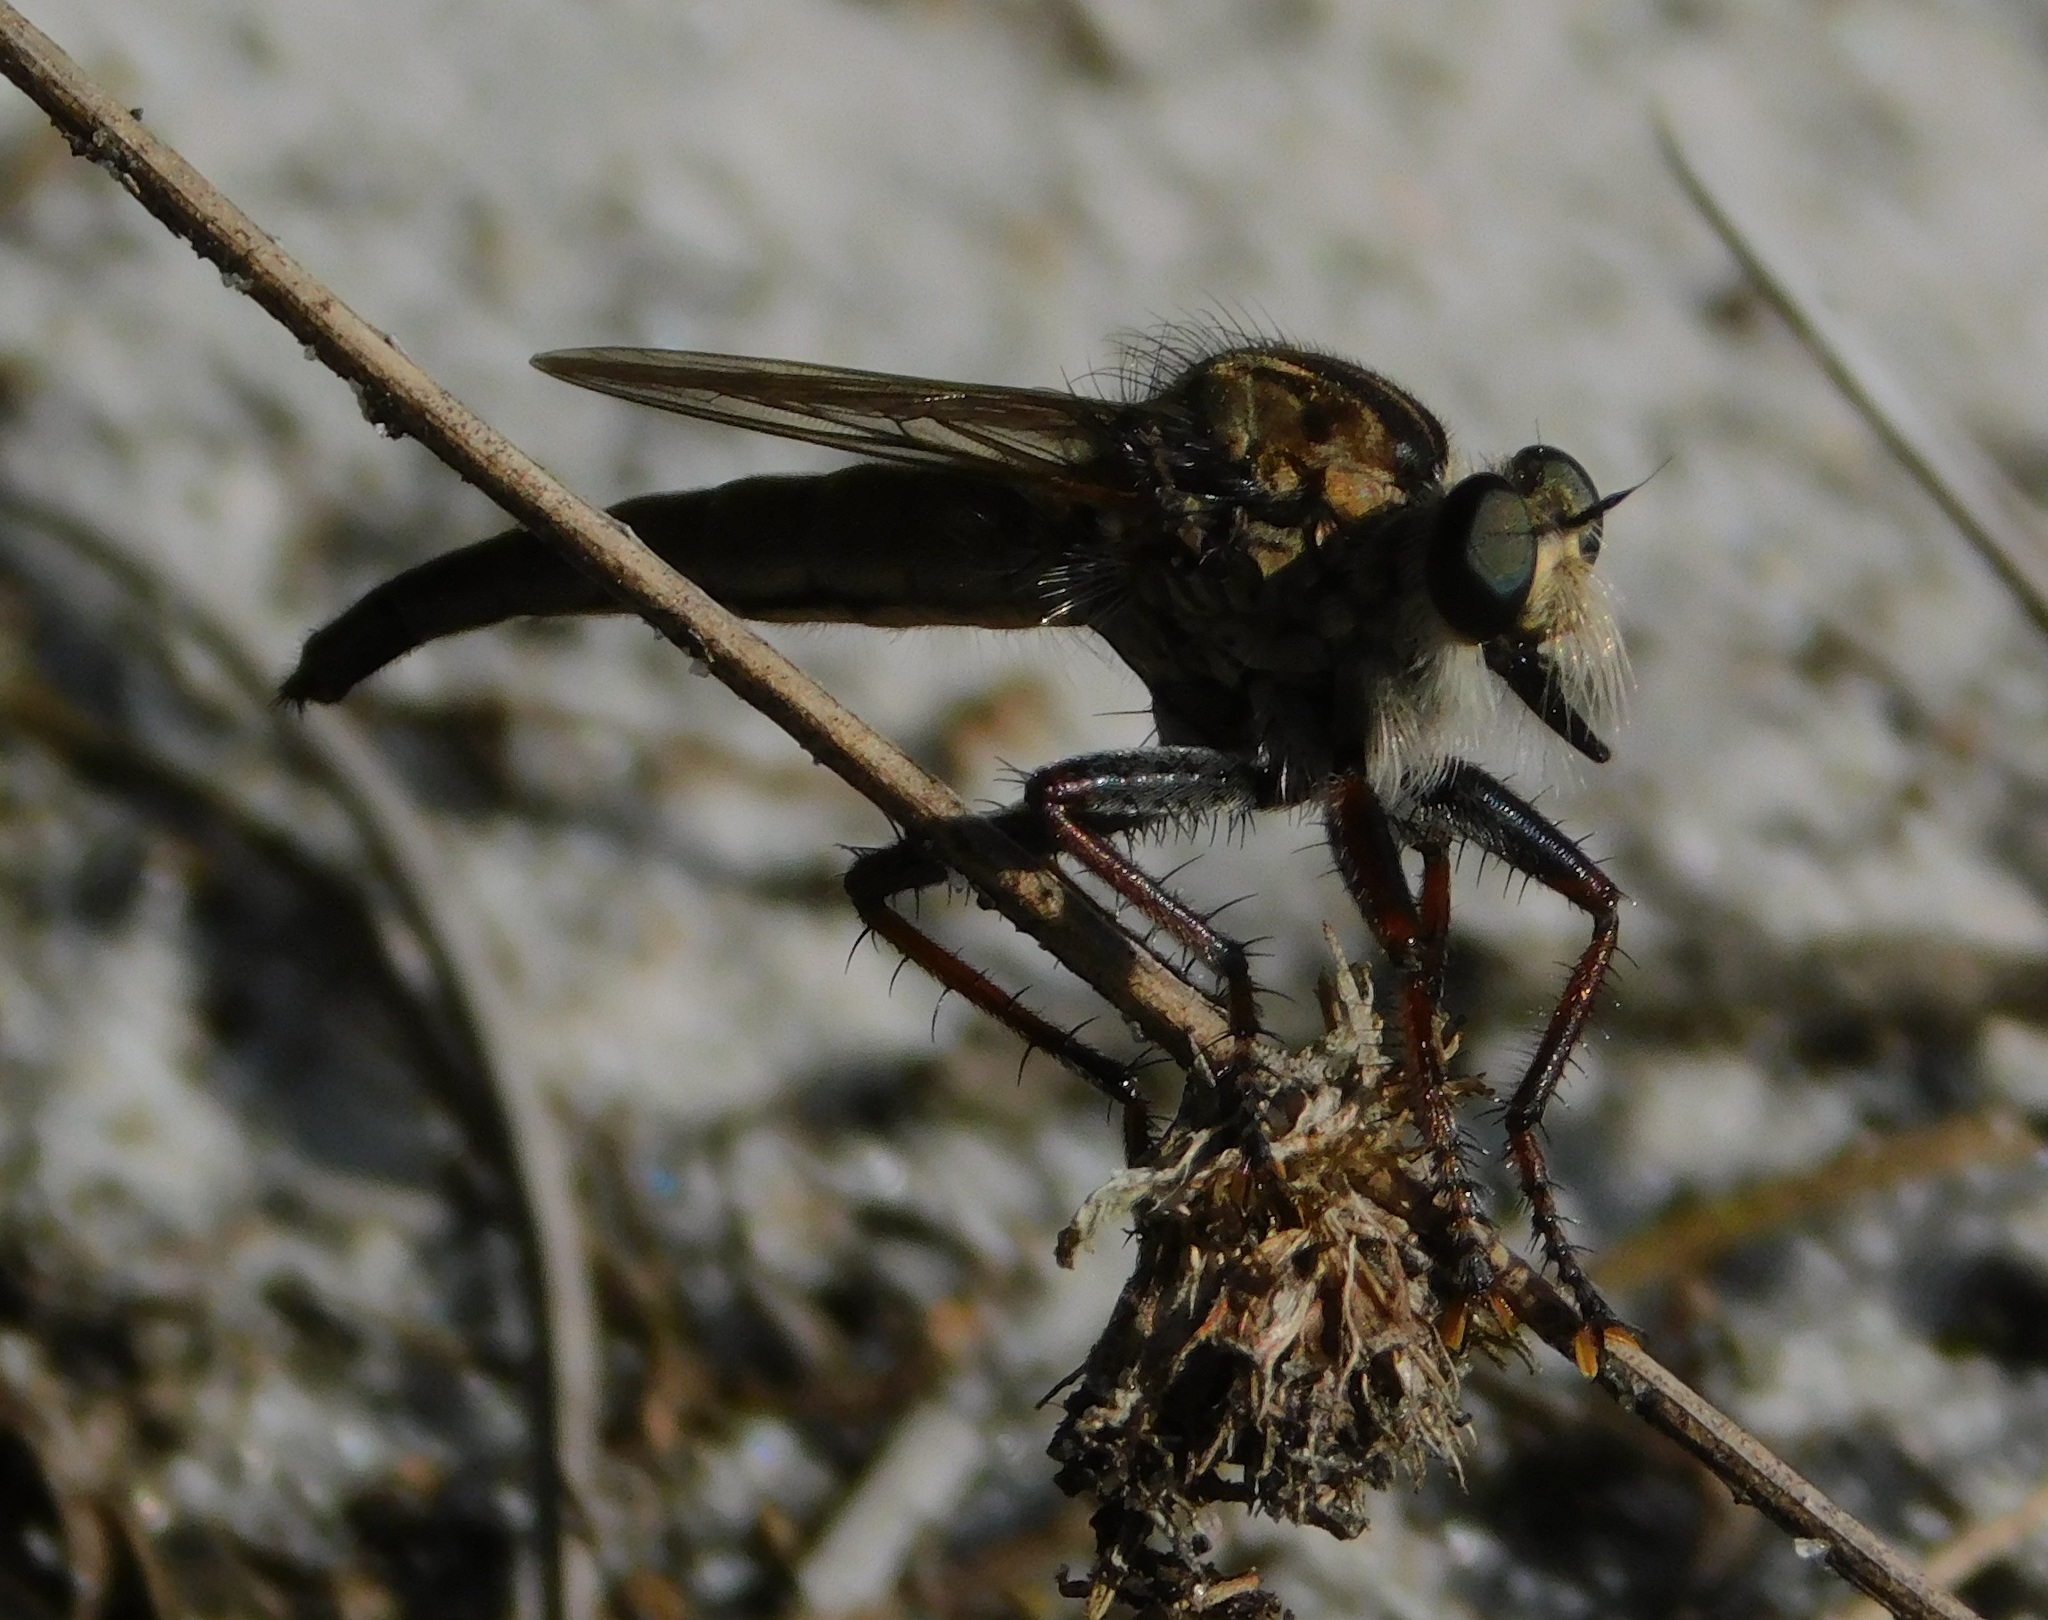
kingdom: Animalia
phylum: Arthropoda
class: Insecta
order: Diptera
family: Asilidae
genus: Proctacanthus
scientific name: Proctacanthus brevipennis
